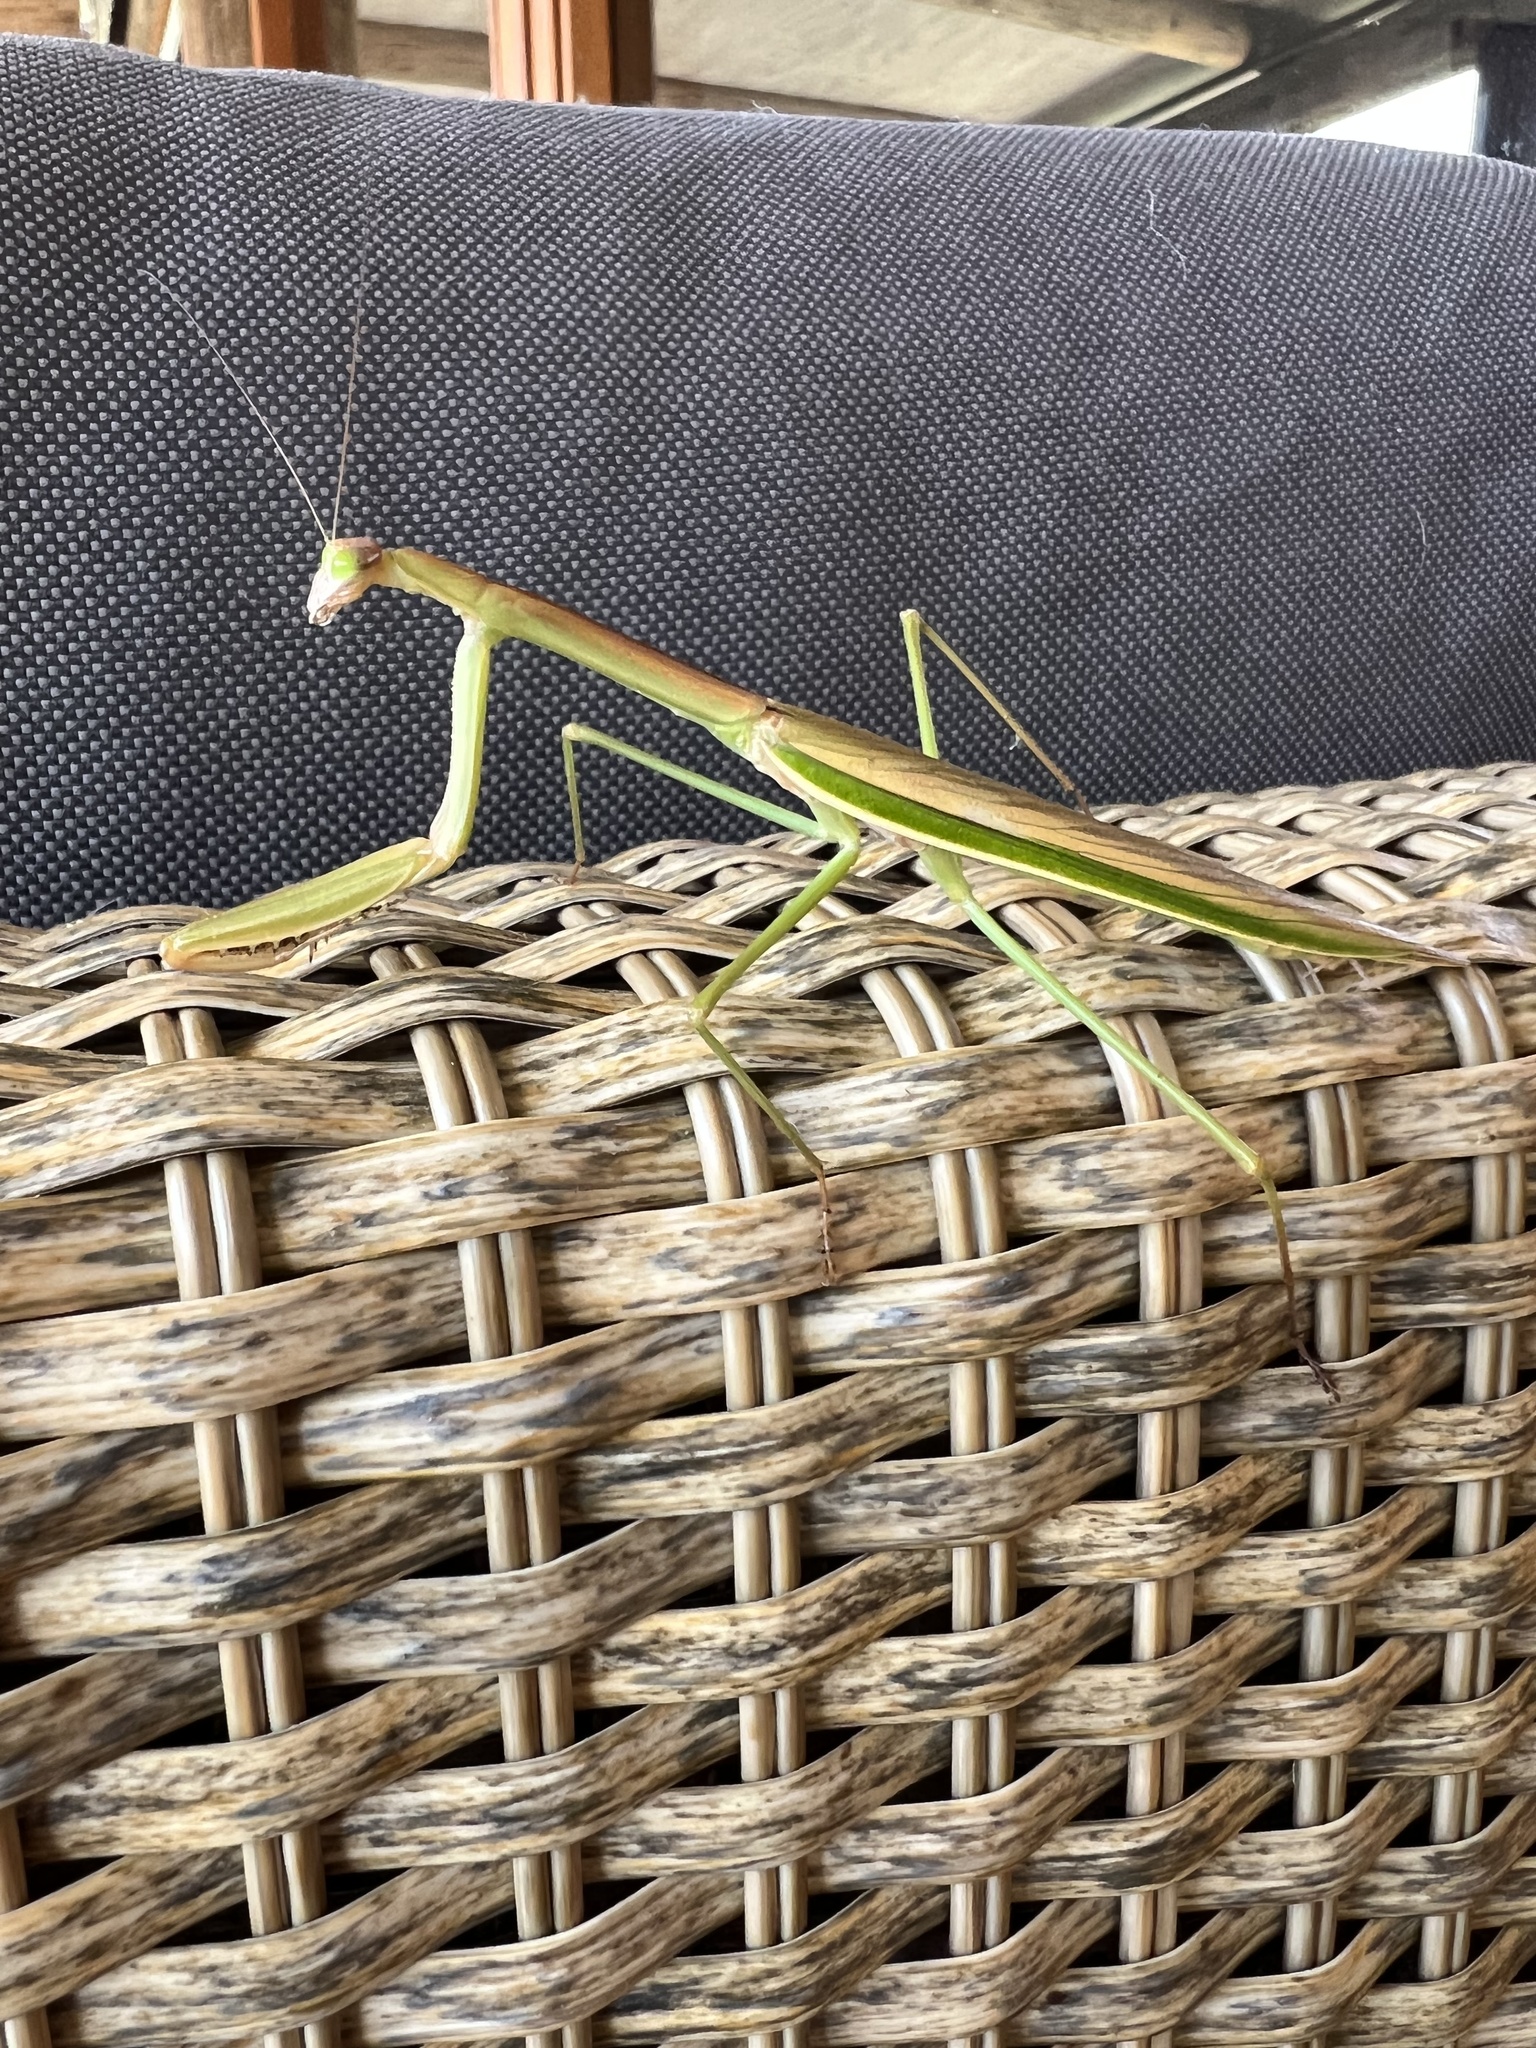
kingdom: Animalia
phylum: Arthropoda
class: Insecta
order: Mantodea
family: Mantidae
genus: Tenodera
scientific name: Tenodera australasiae
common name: Purple-winged mantis
